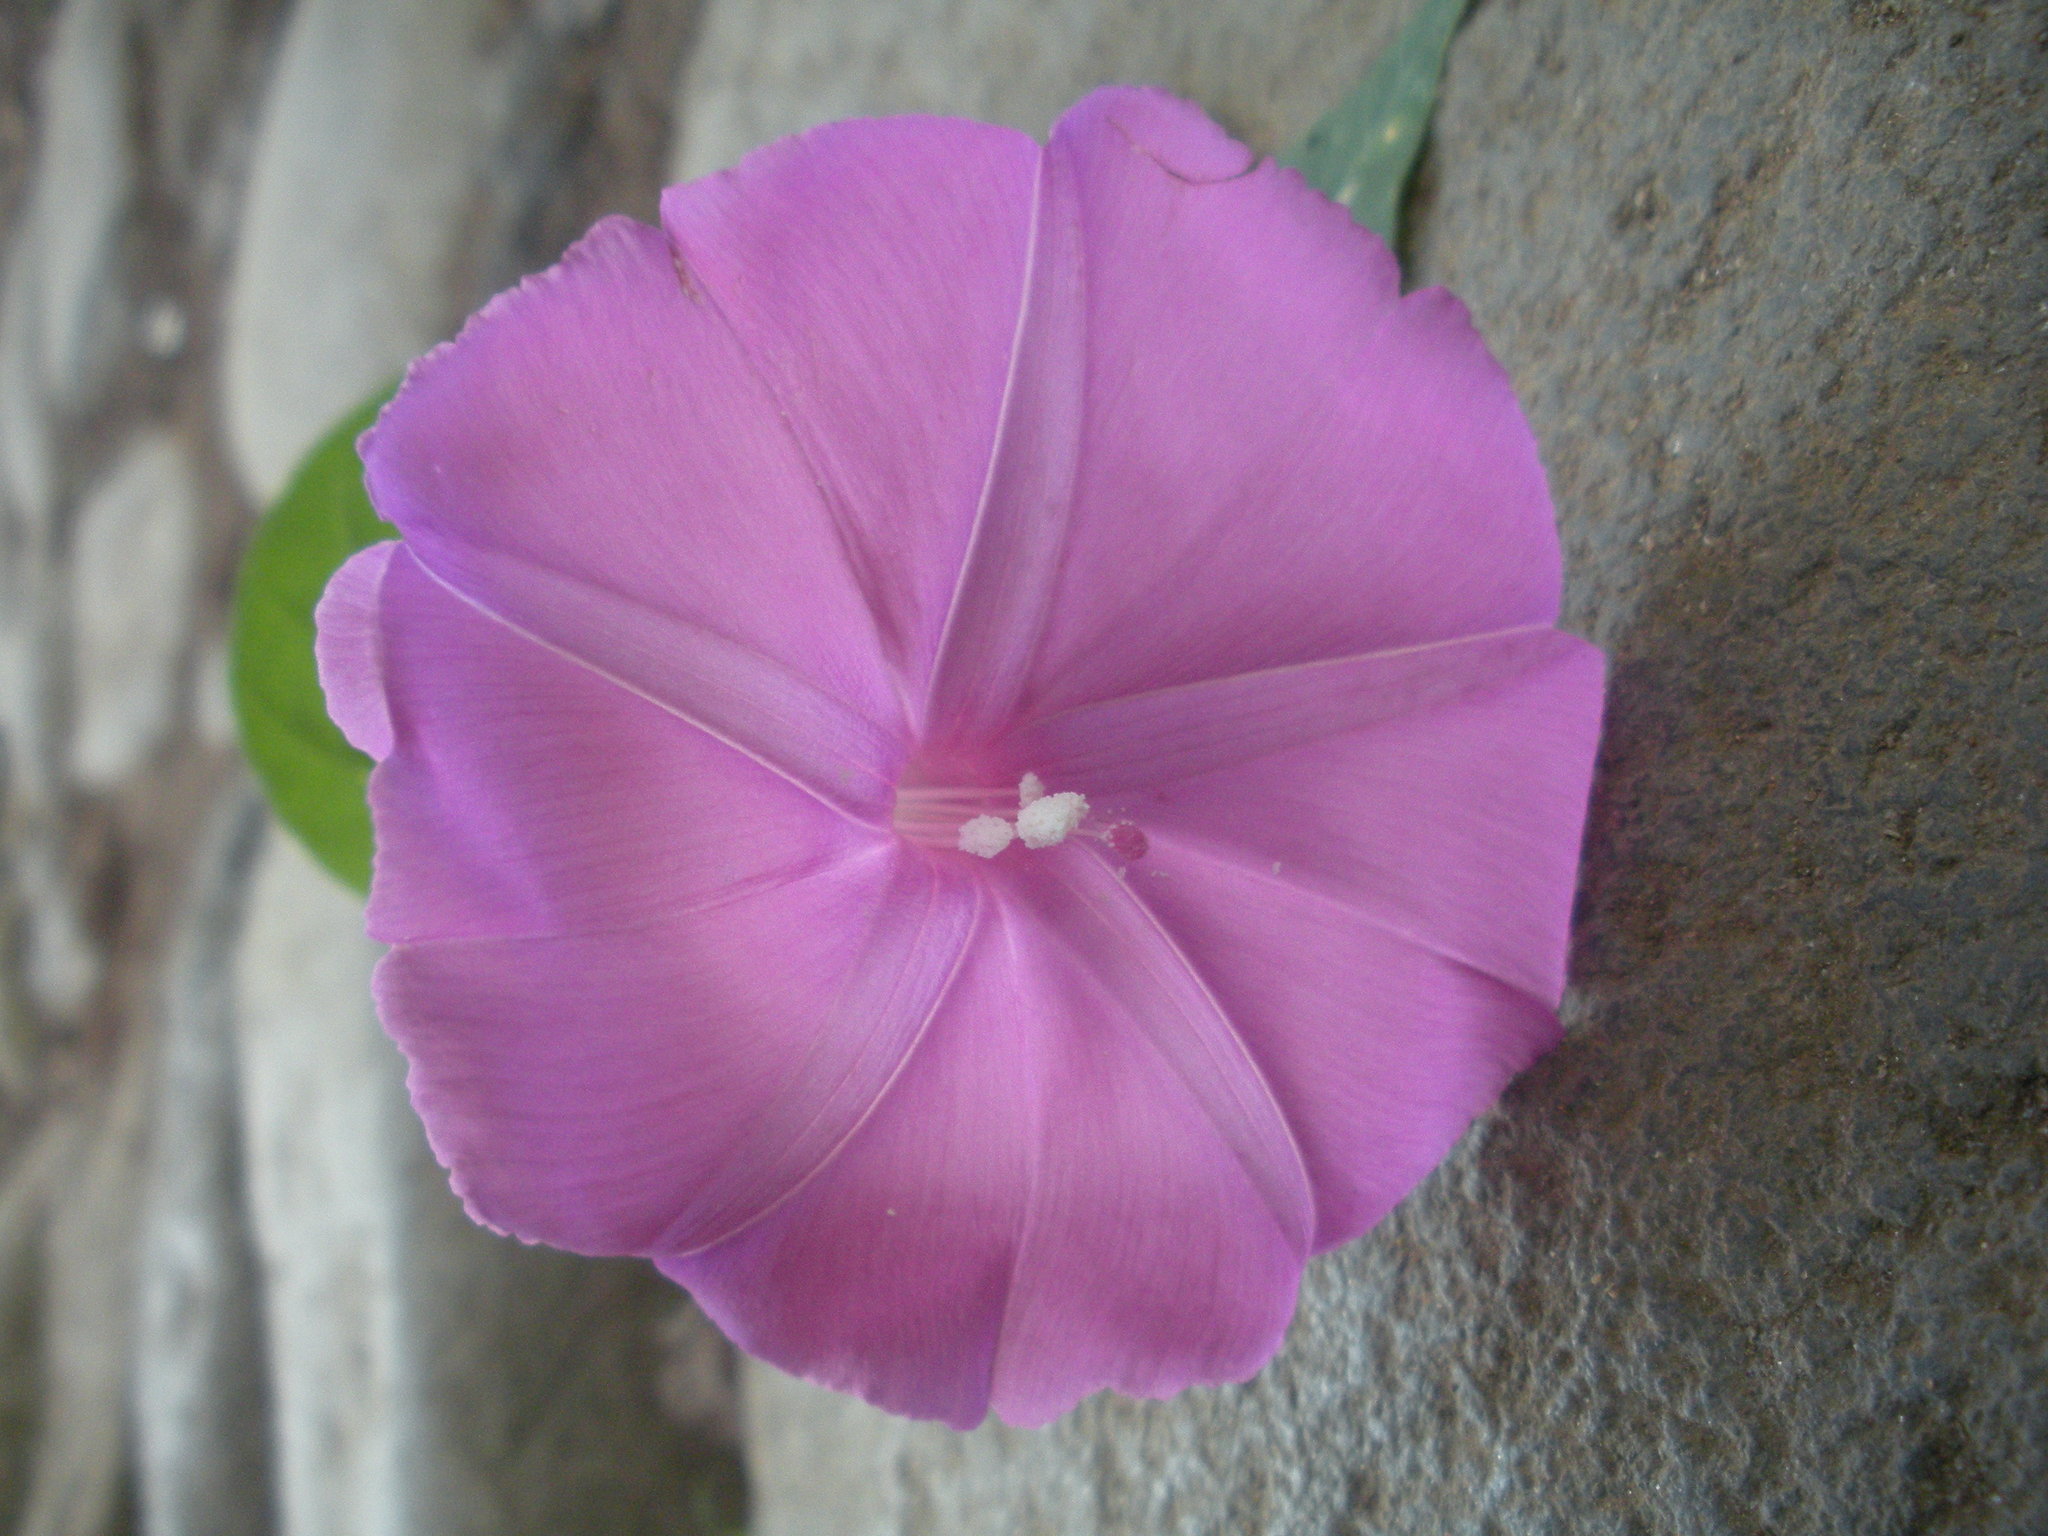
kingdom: Plantae
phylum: Tracheophyta
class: Magnoliopsida
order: Solanales
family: Convolvulaceae
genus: Ipomoea
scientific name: Ipomoea dumosa
